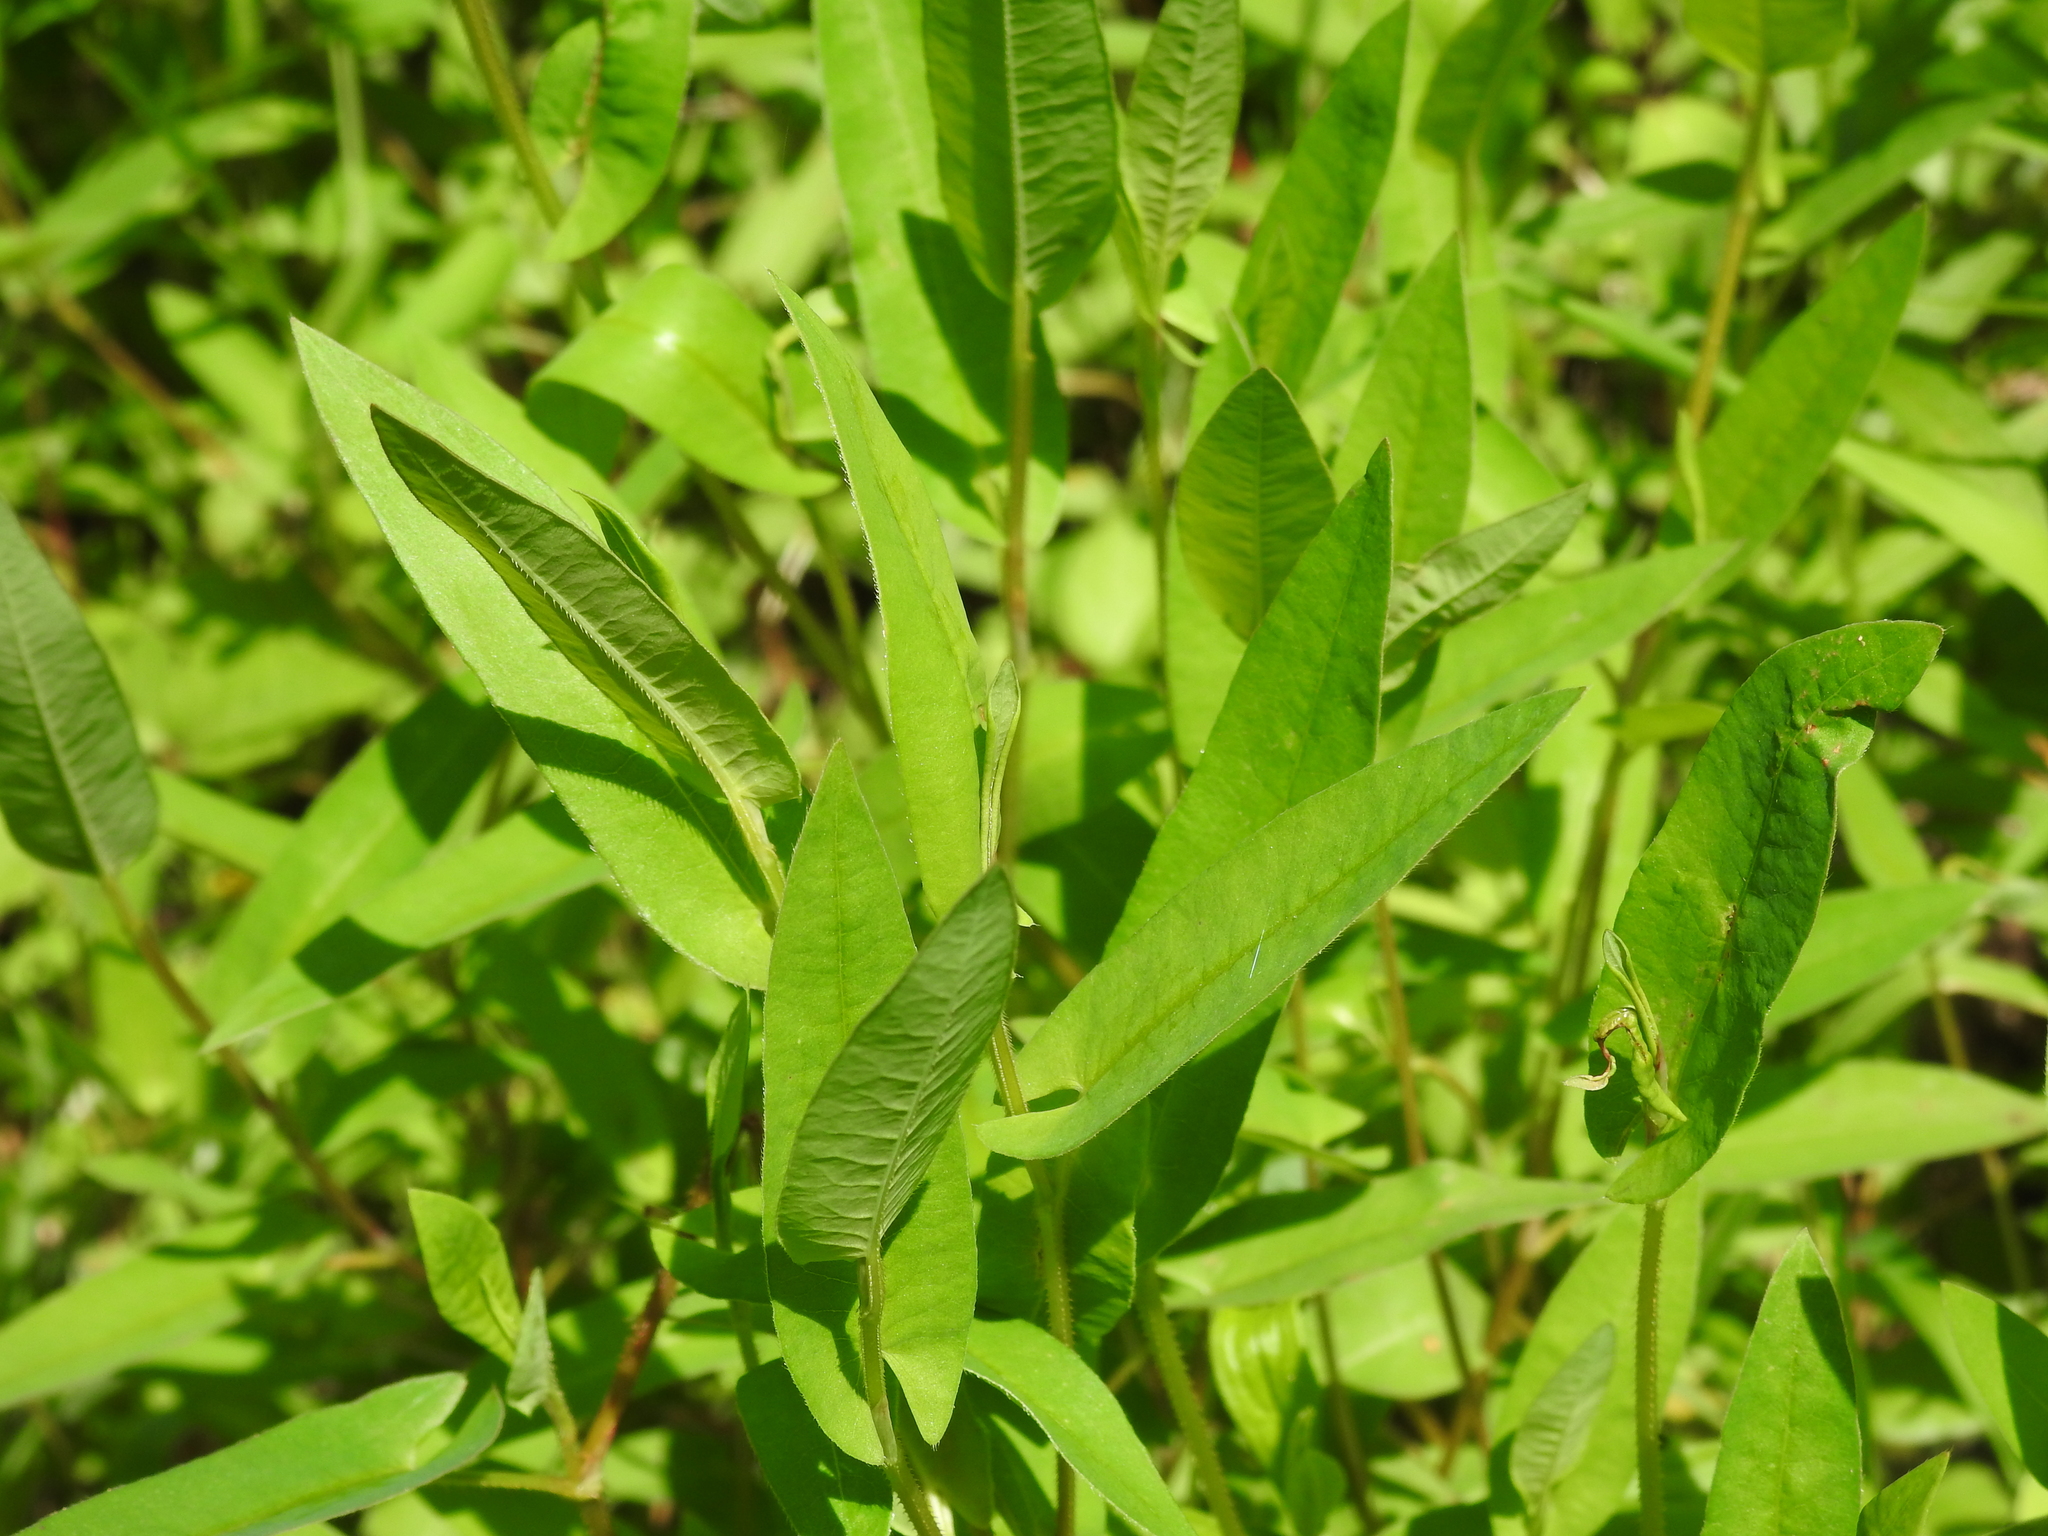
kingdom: Plantae
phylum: Tracheophyta
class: Magnoliopsida
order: Caryophyllales
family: Polygonaceae
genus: Persicaria
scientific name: Persicaria sagittata
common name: American tearthumb
